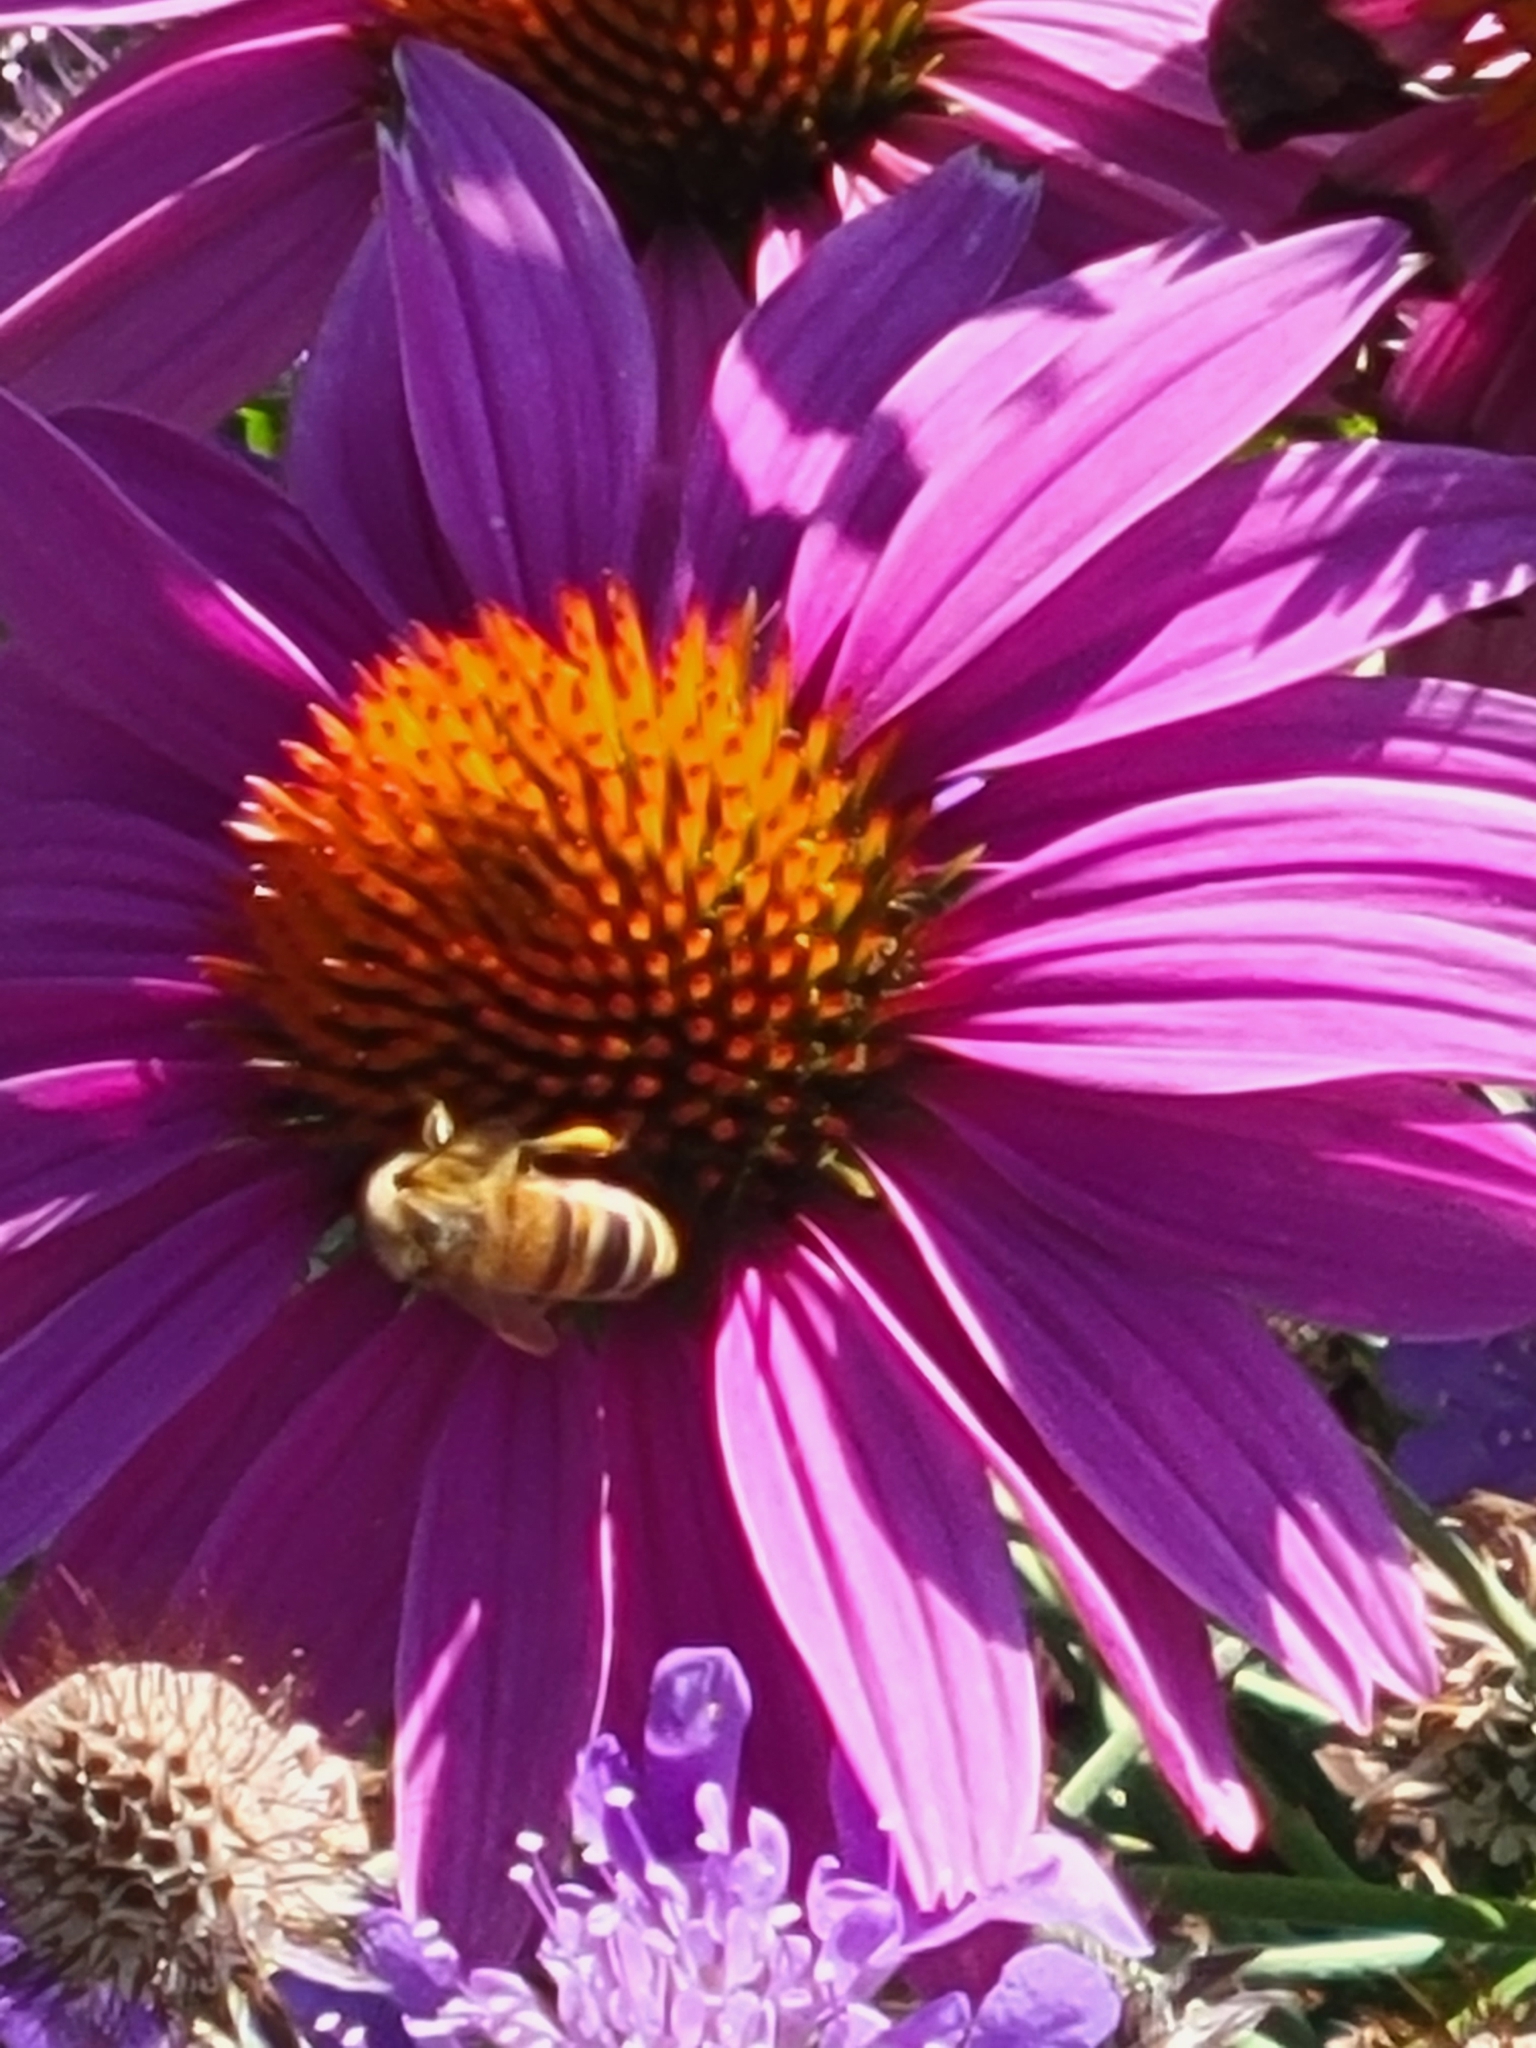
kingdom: Animalia
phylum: Arthropoda
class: Insecta
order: Hymenoptera
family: Apidae
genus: Apis
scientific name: Apis mellifera
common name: Honey bee
